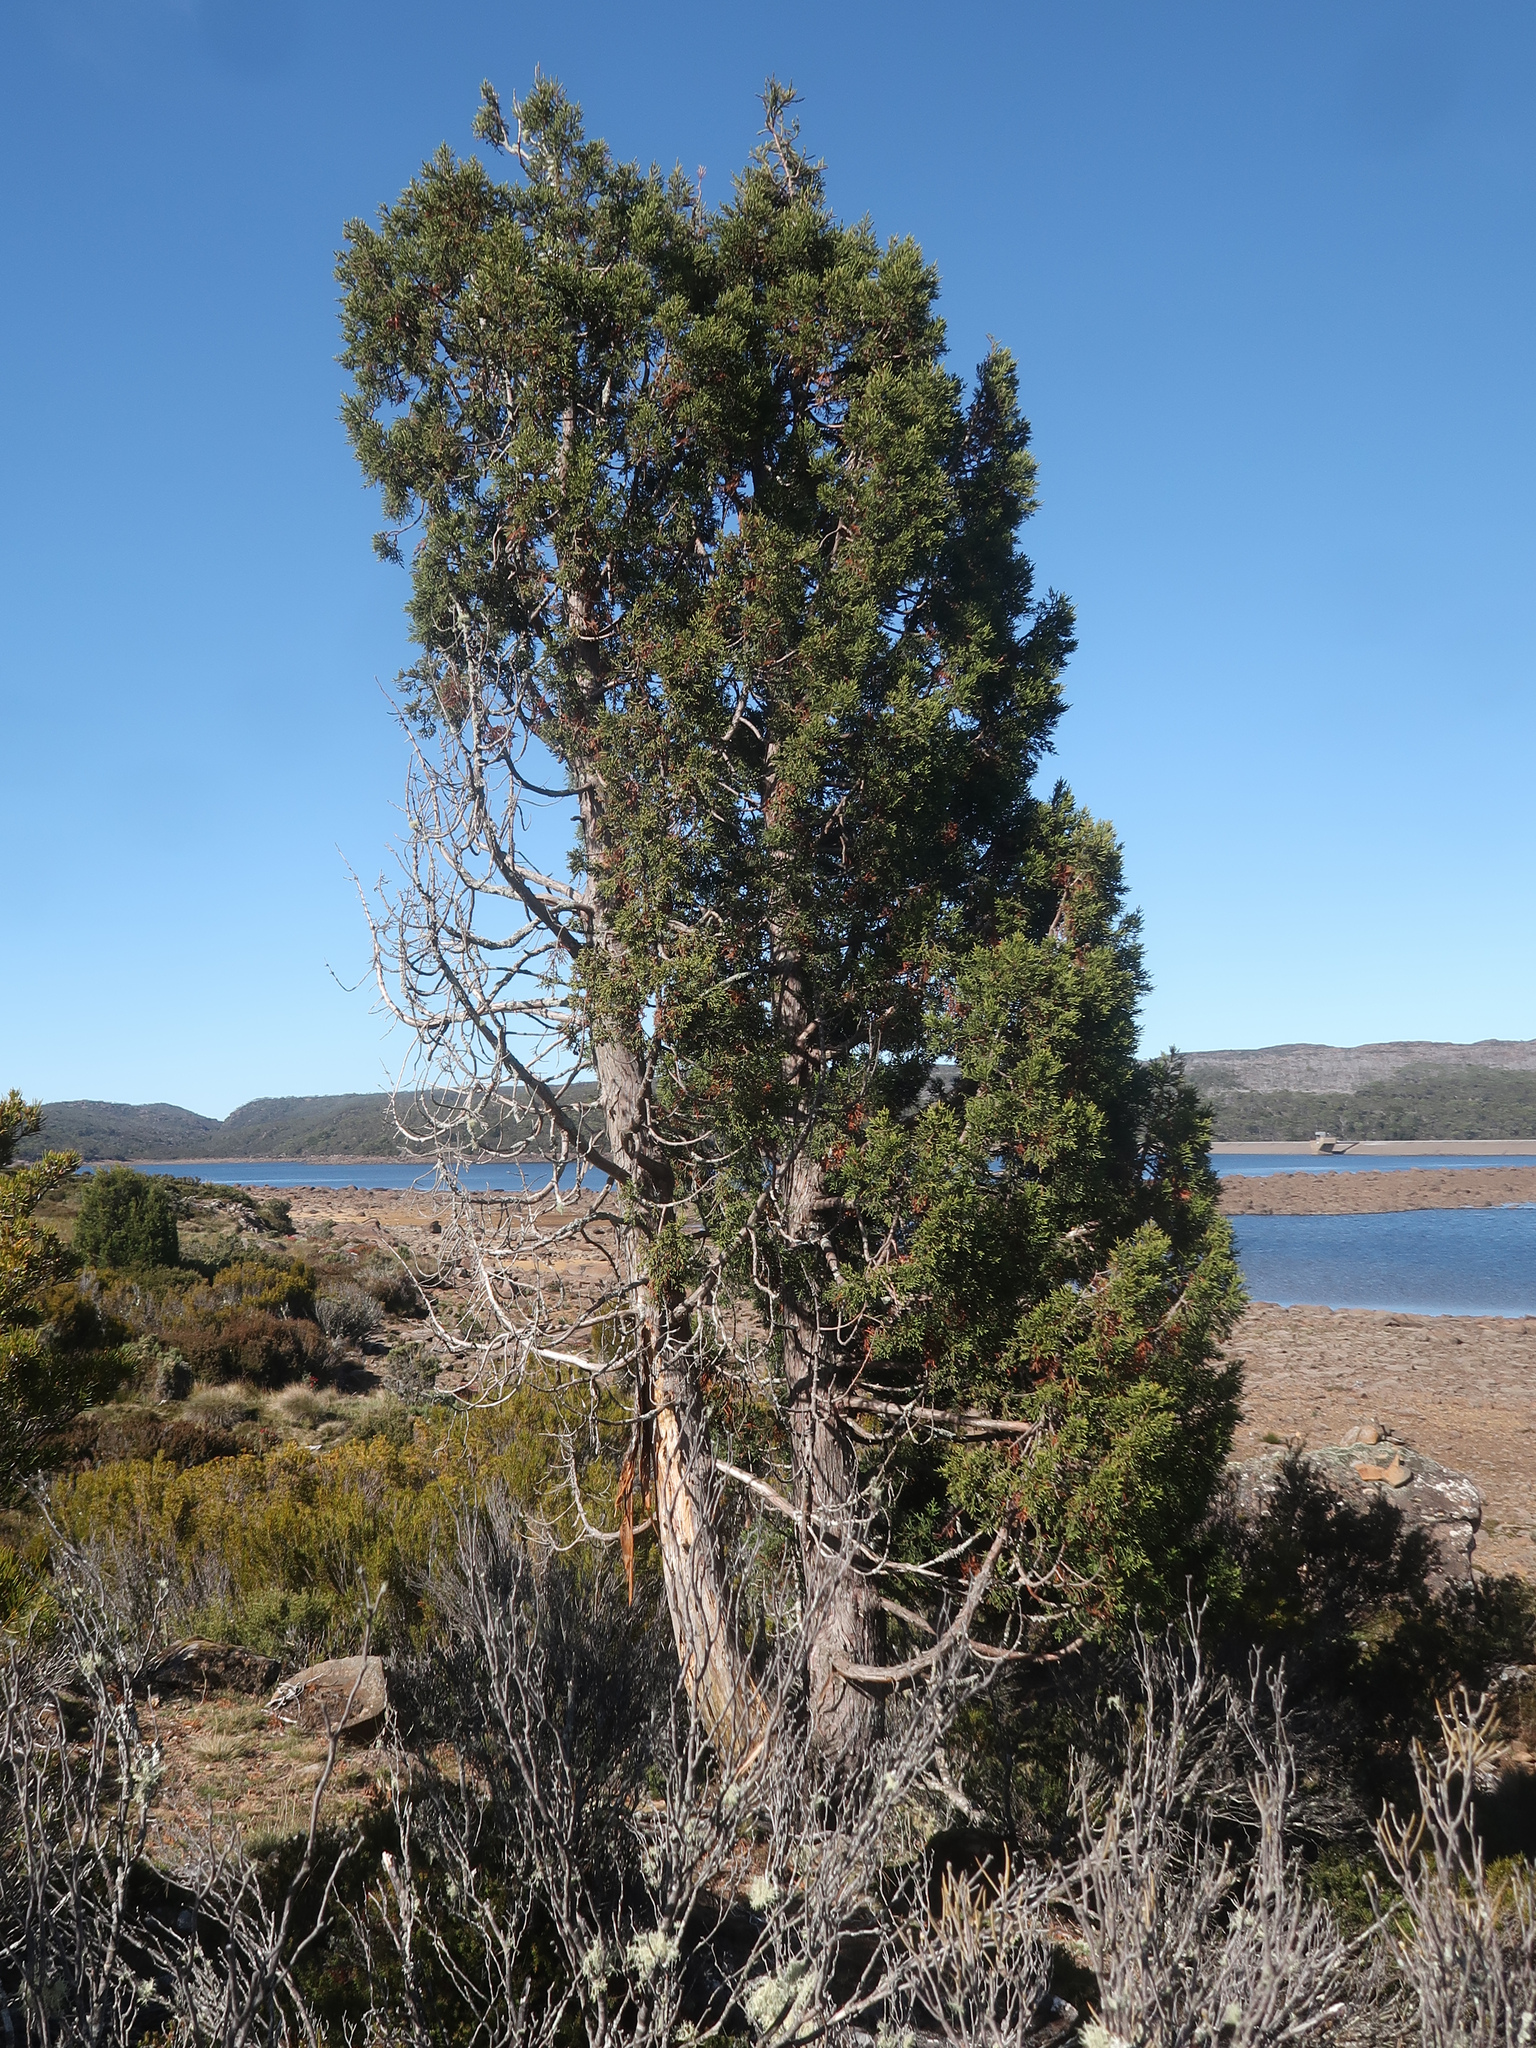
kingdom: Plantae
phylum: Tracheophyta
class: Pinopsida
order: Pinales
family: Cupressaceae
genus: Athrotaxis
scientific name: Athrotaxis cupressoides
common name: Tasmanian pencil pine
